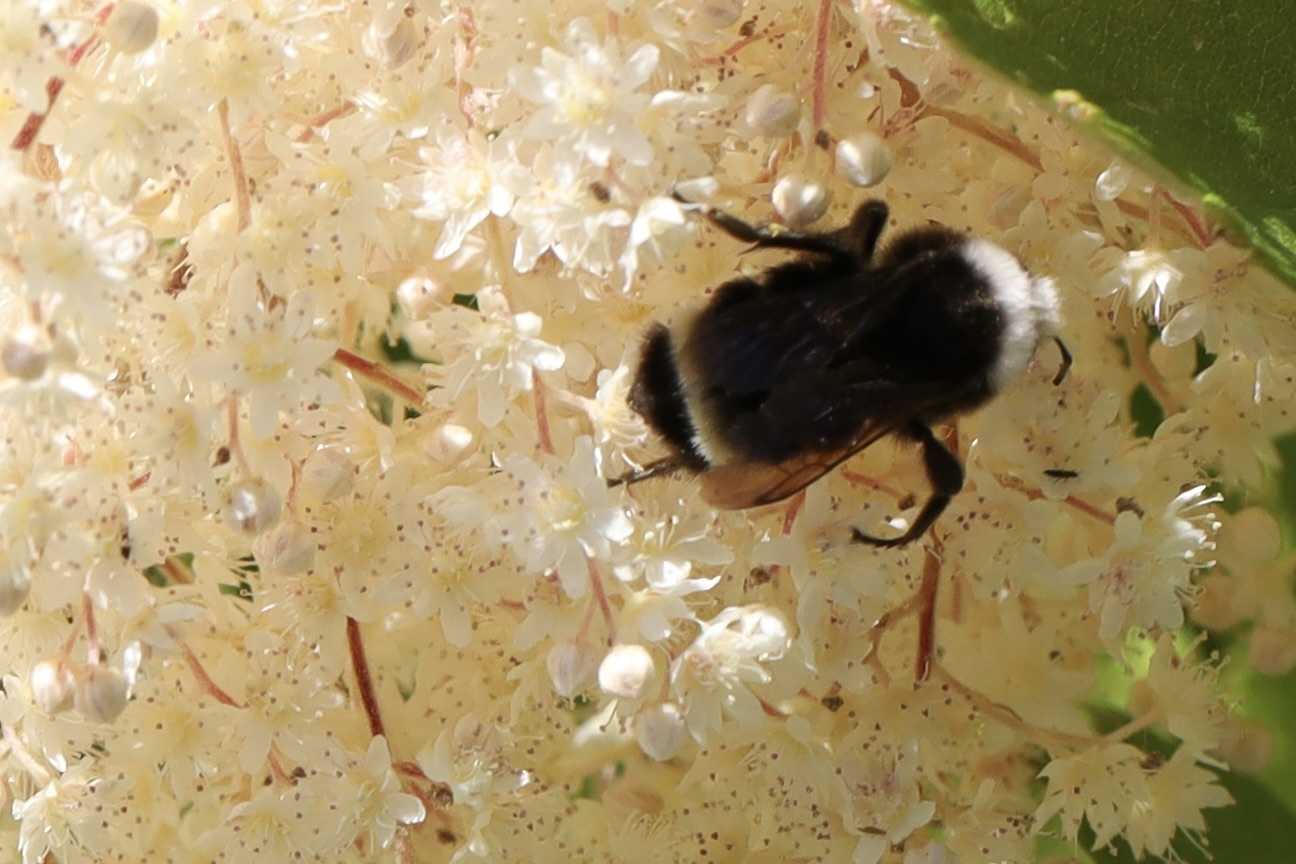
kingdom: Animalia
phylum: Arthropoda
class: Insecta
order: Hymenoptera
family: Apidae
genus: Pyrobombus
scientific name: Pyrobombus
